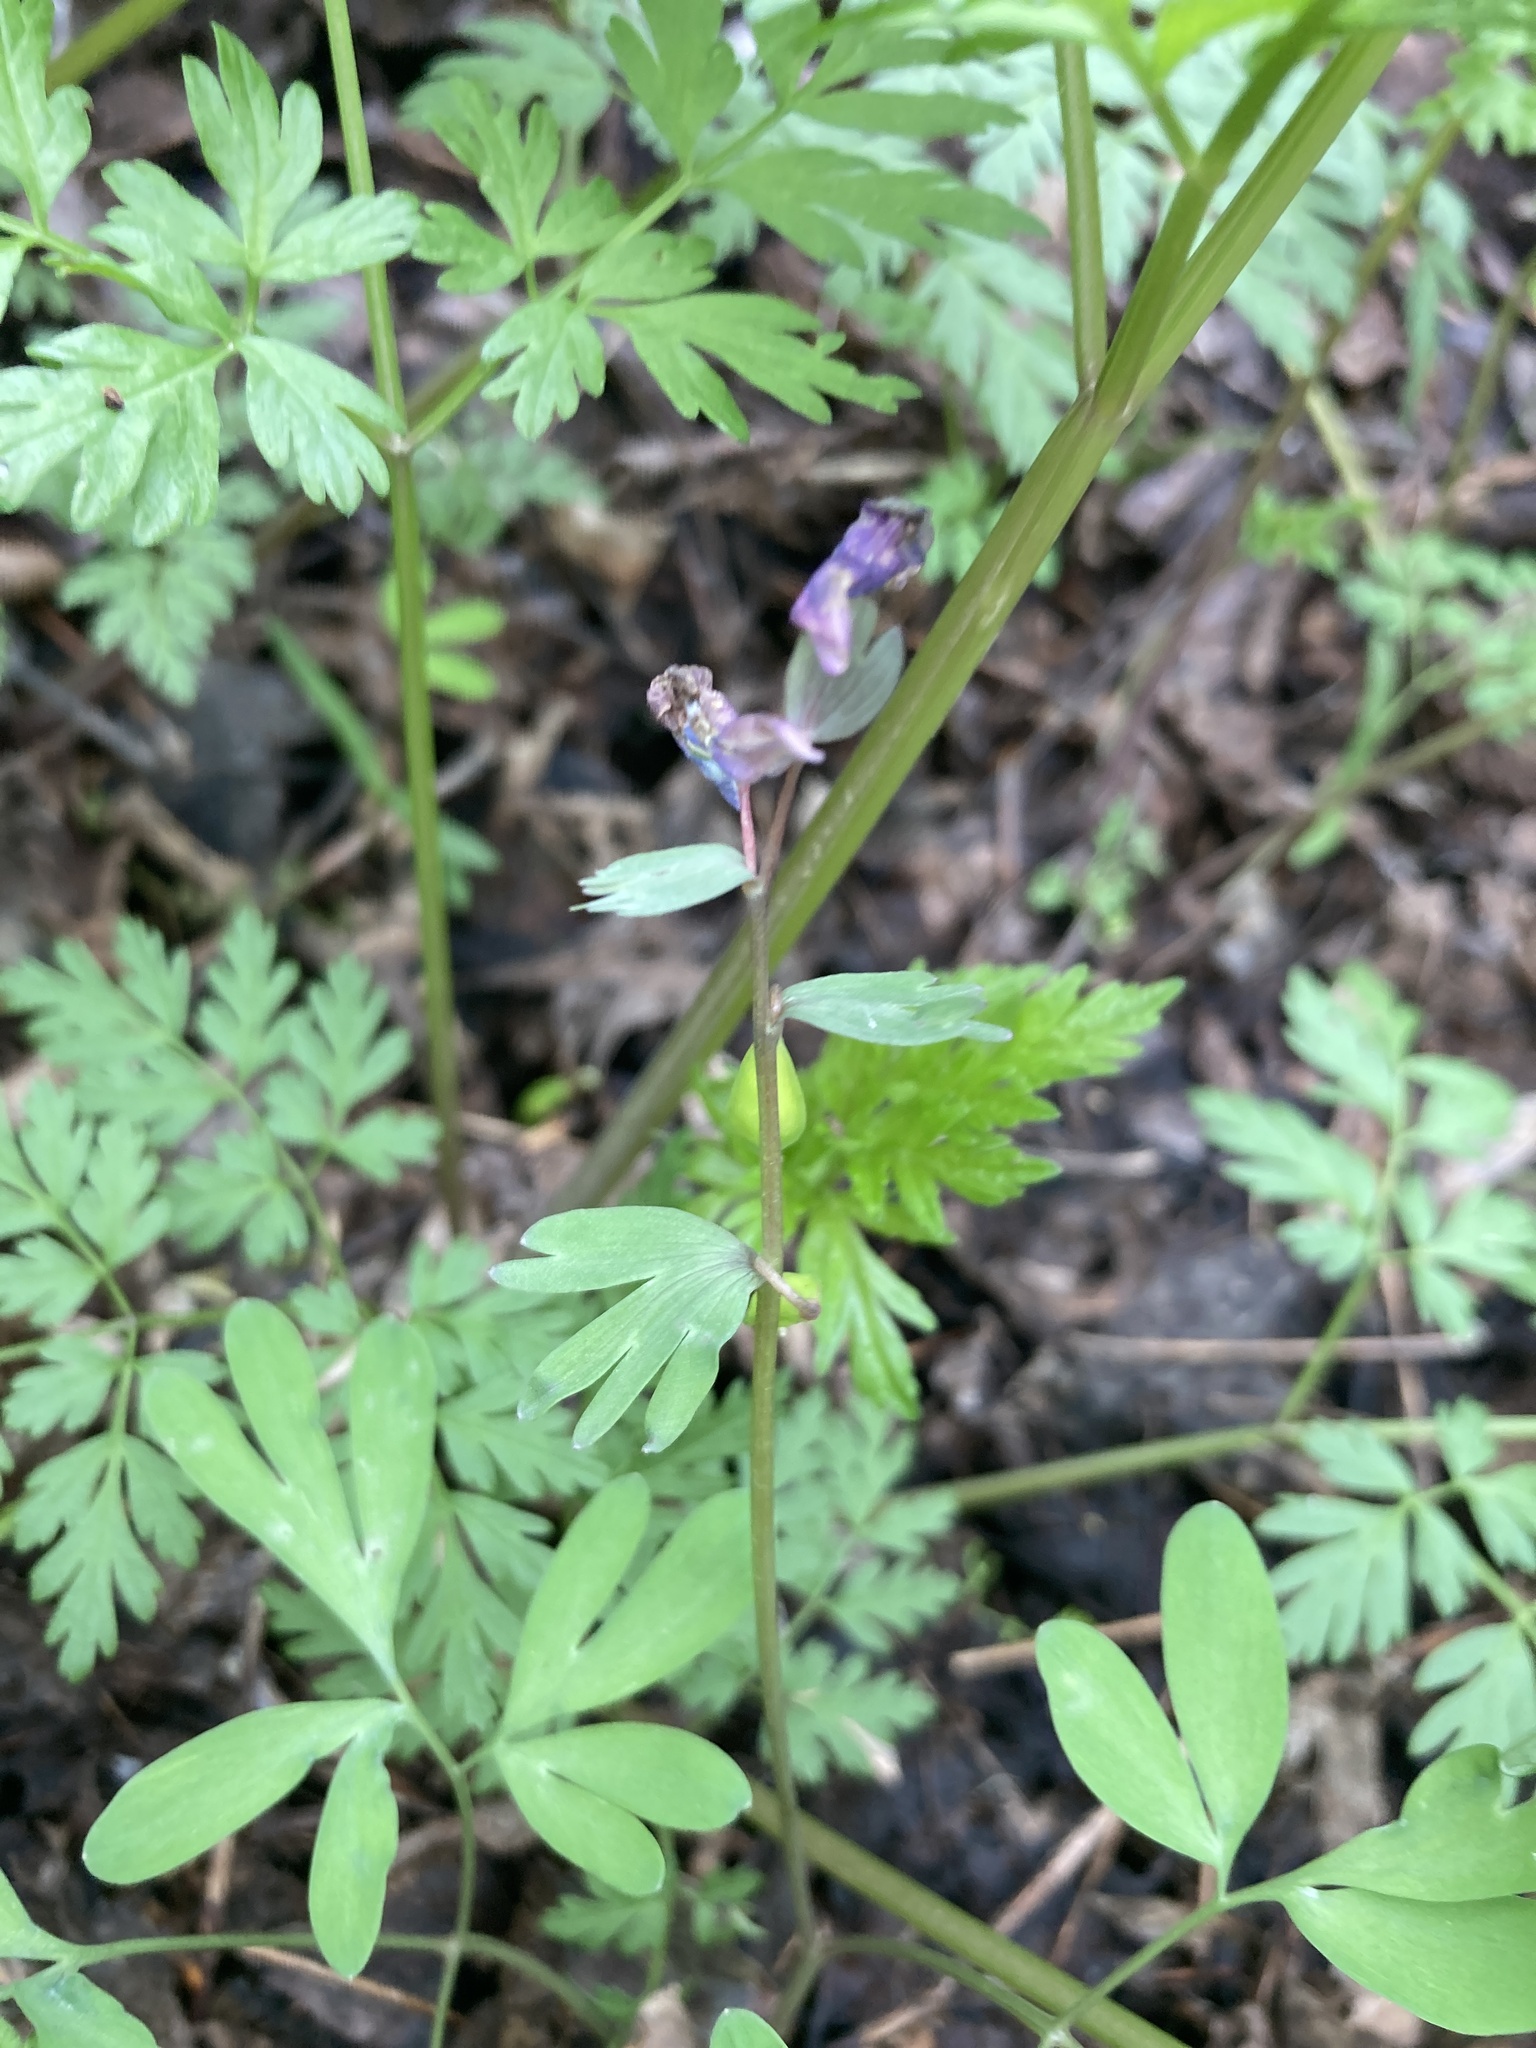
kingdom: Plantae
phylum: Tracheophyta
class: Magnoliopsida
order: Ranunculales
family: Papaveraceae
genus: Corydalis
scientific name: Corydalis solida
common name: Bird-in-a-bush
